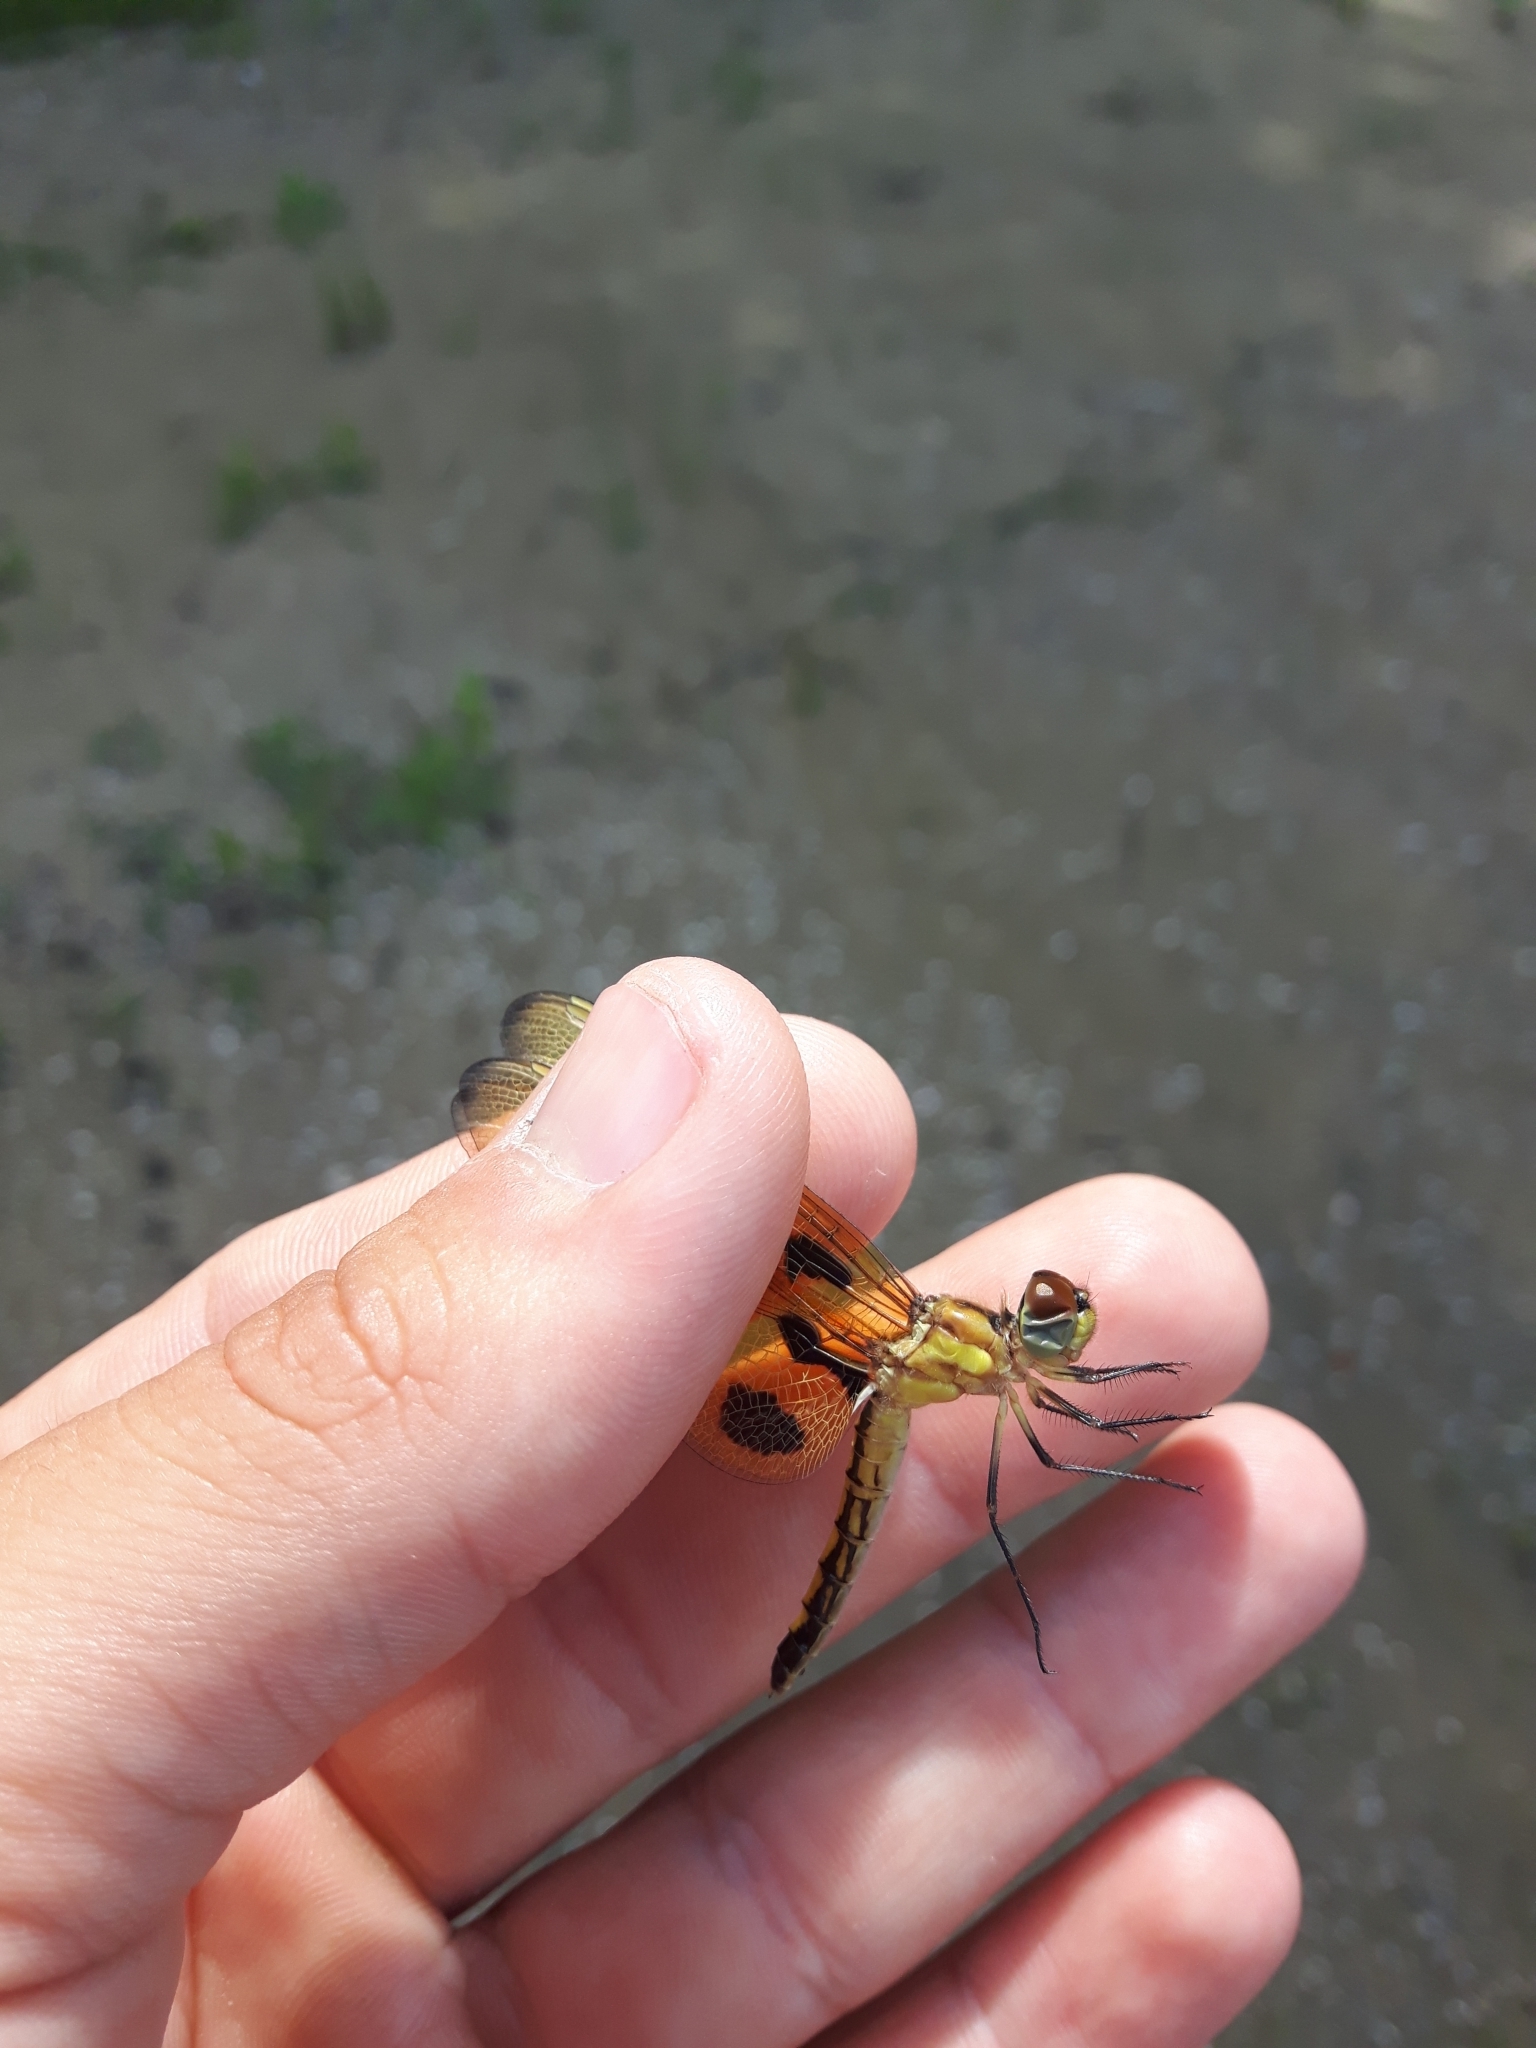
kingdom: Animalia
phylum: Arthropoda
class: Insecta
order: Odonata
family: Libellulidae
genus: Celithemis
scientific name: Celithemis eponina
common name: Halloween pennant
